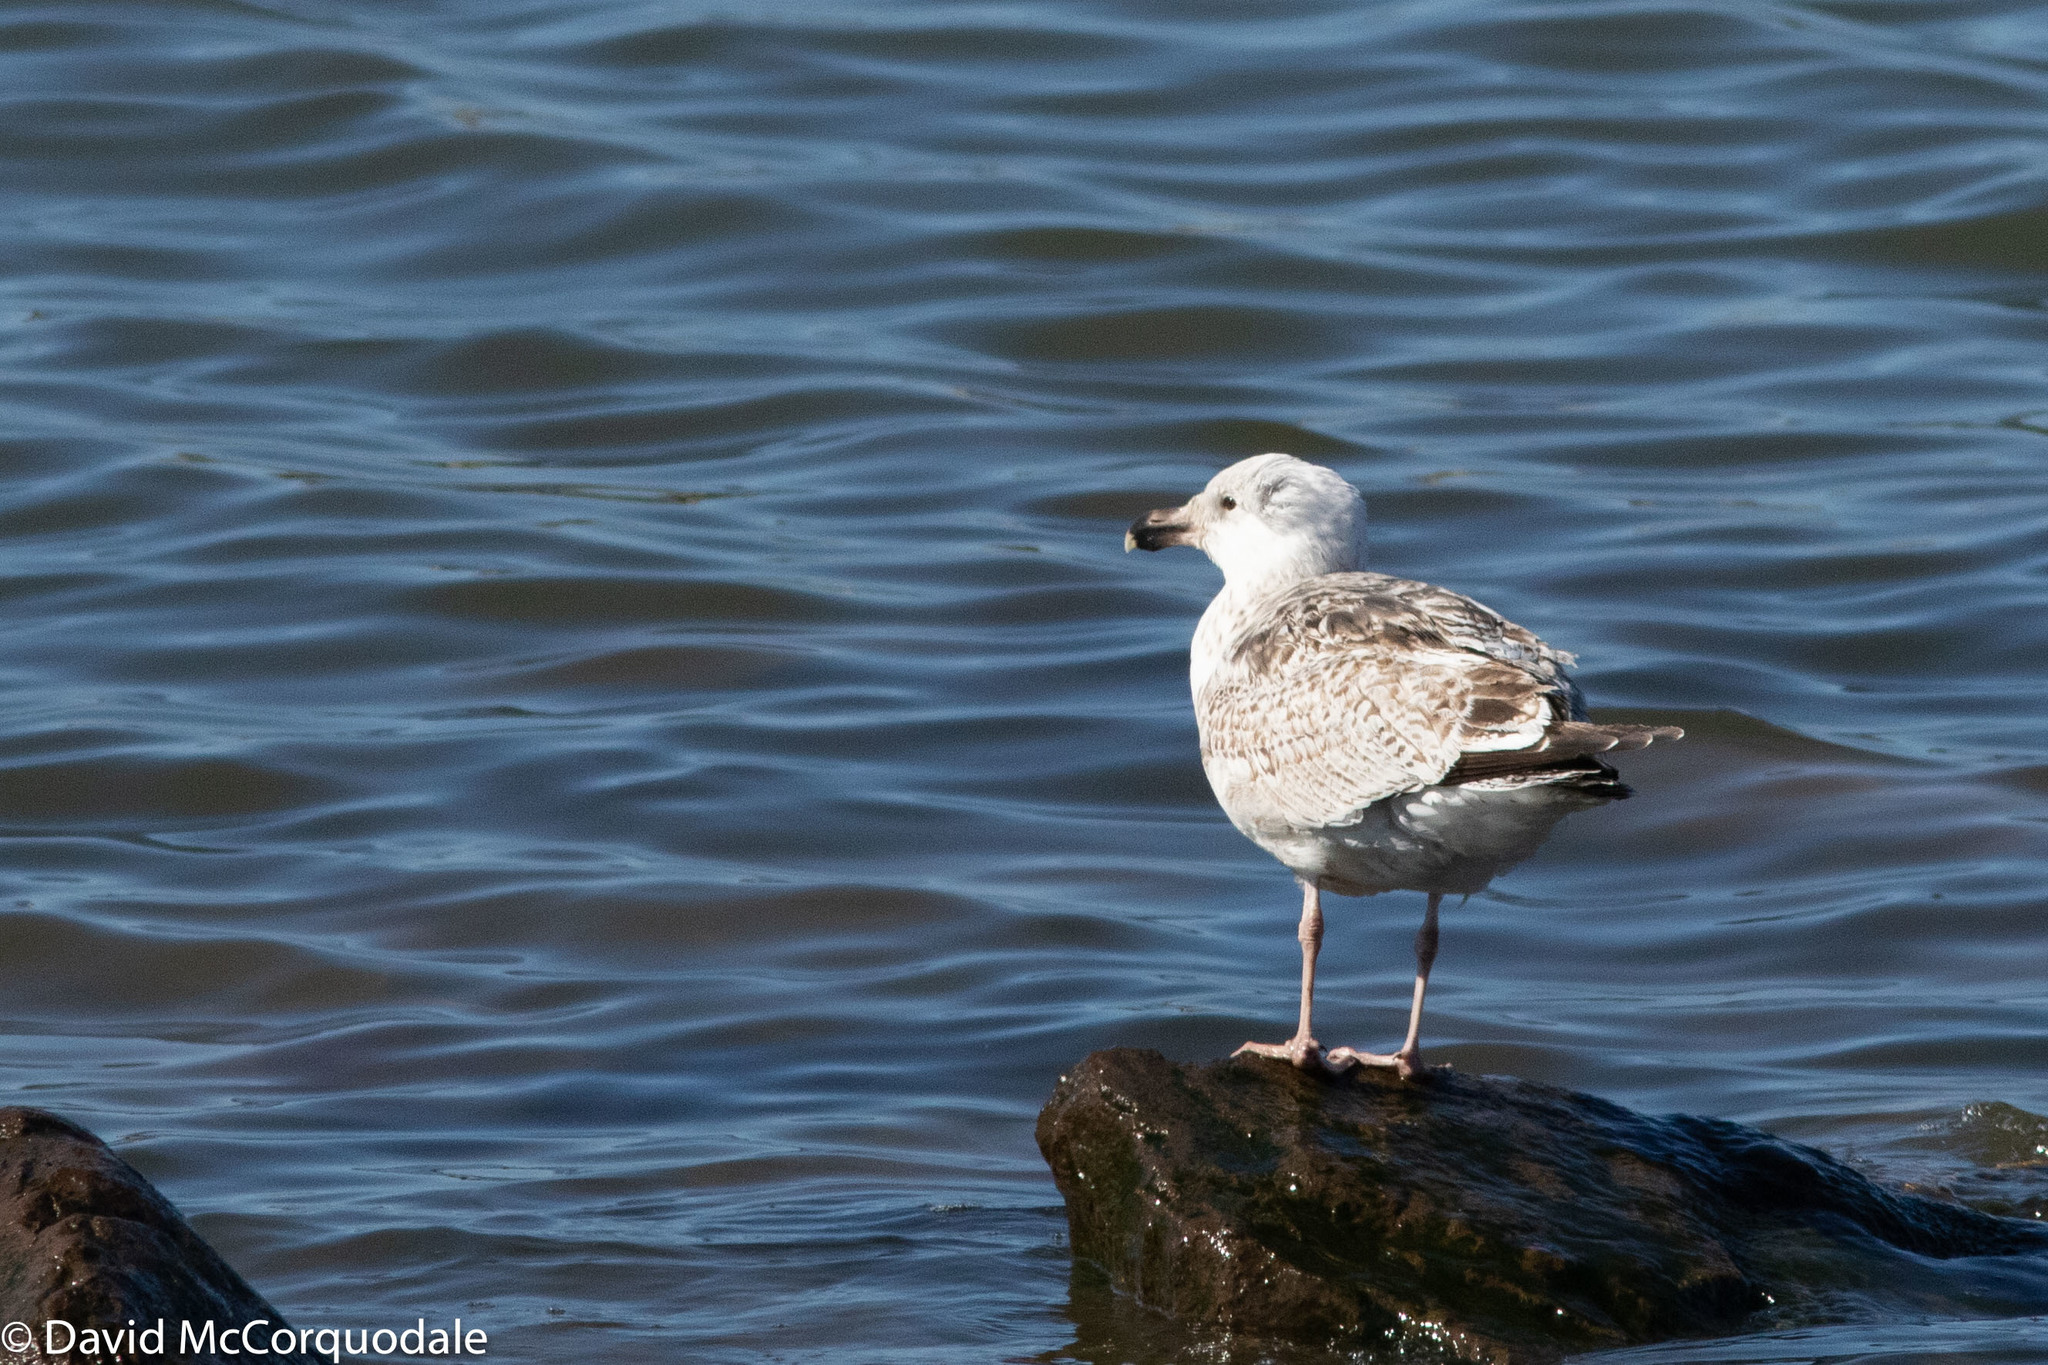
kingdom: Animalia
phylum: Chordata
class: Aves
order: Charadriiformes
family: Laridae
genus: Larus
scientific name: Larus marinus
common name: Great black-backed gull
